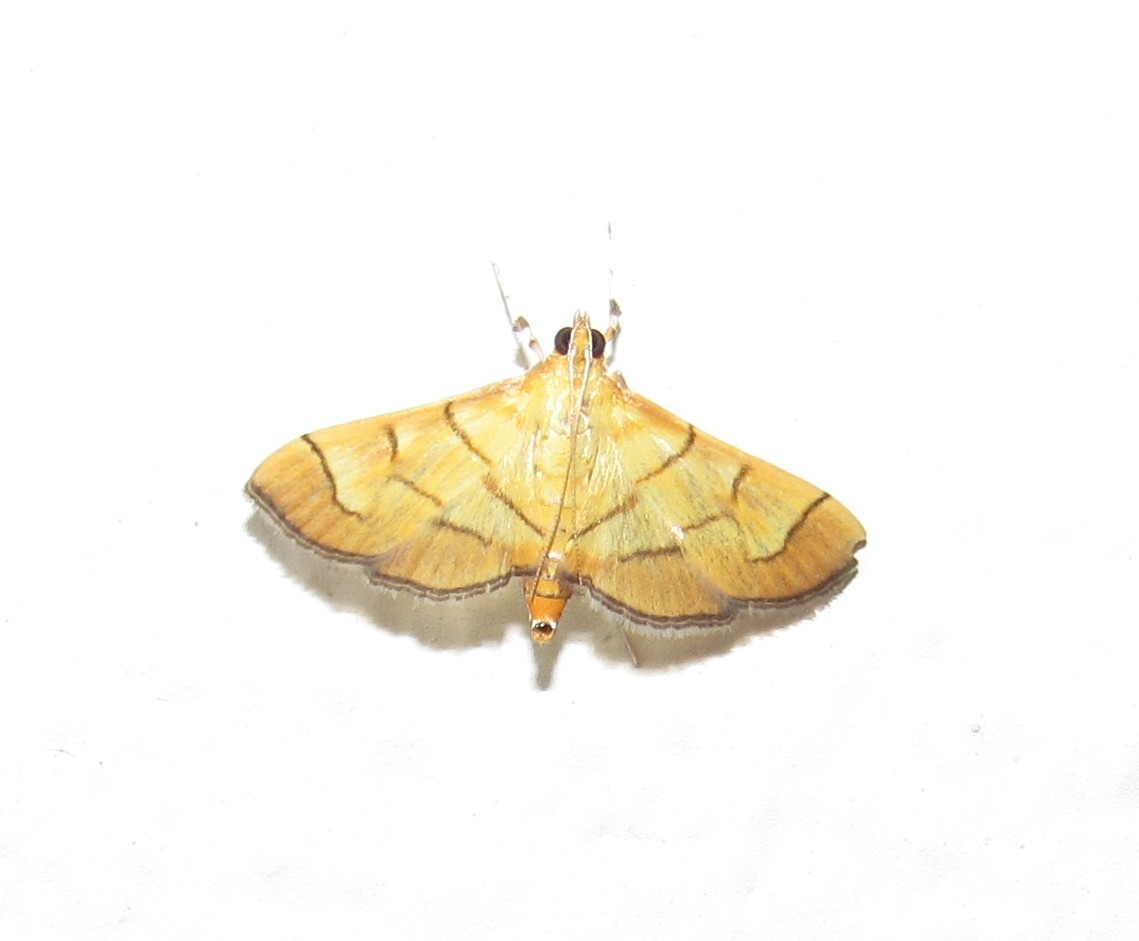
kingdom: Animalia
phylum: Arthropoda
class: Insecta
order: Lepidoptera
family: Crambidae
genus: Salbia
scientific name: Salbia haemorrhoidalis
